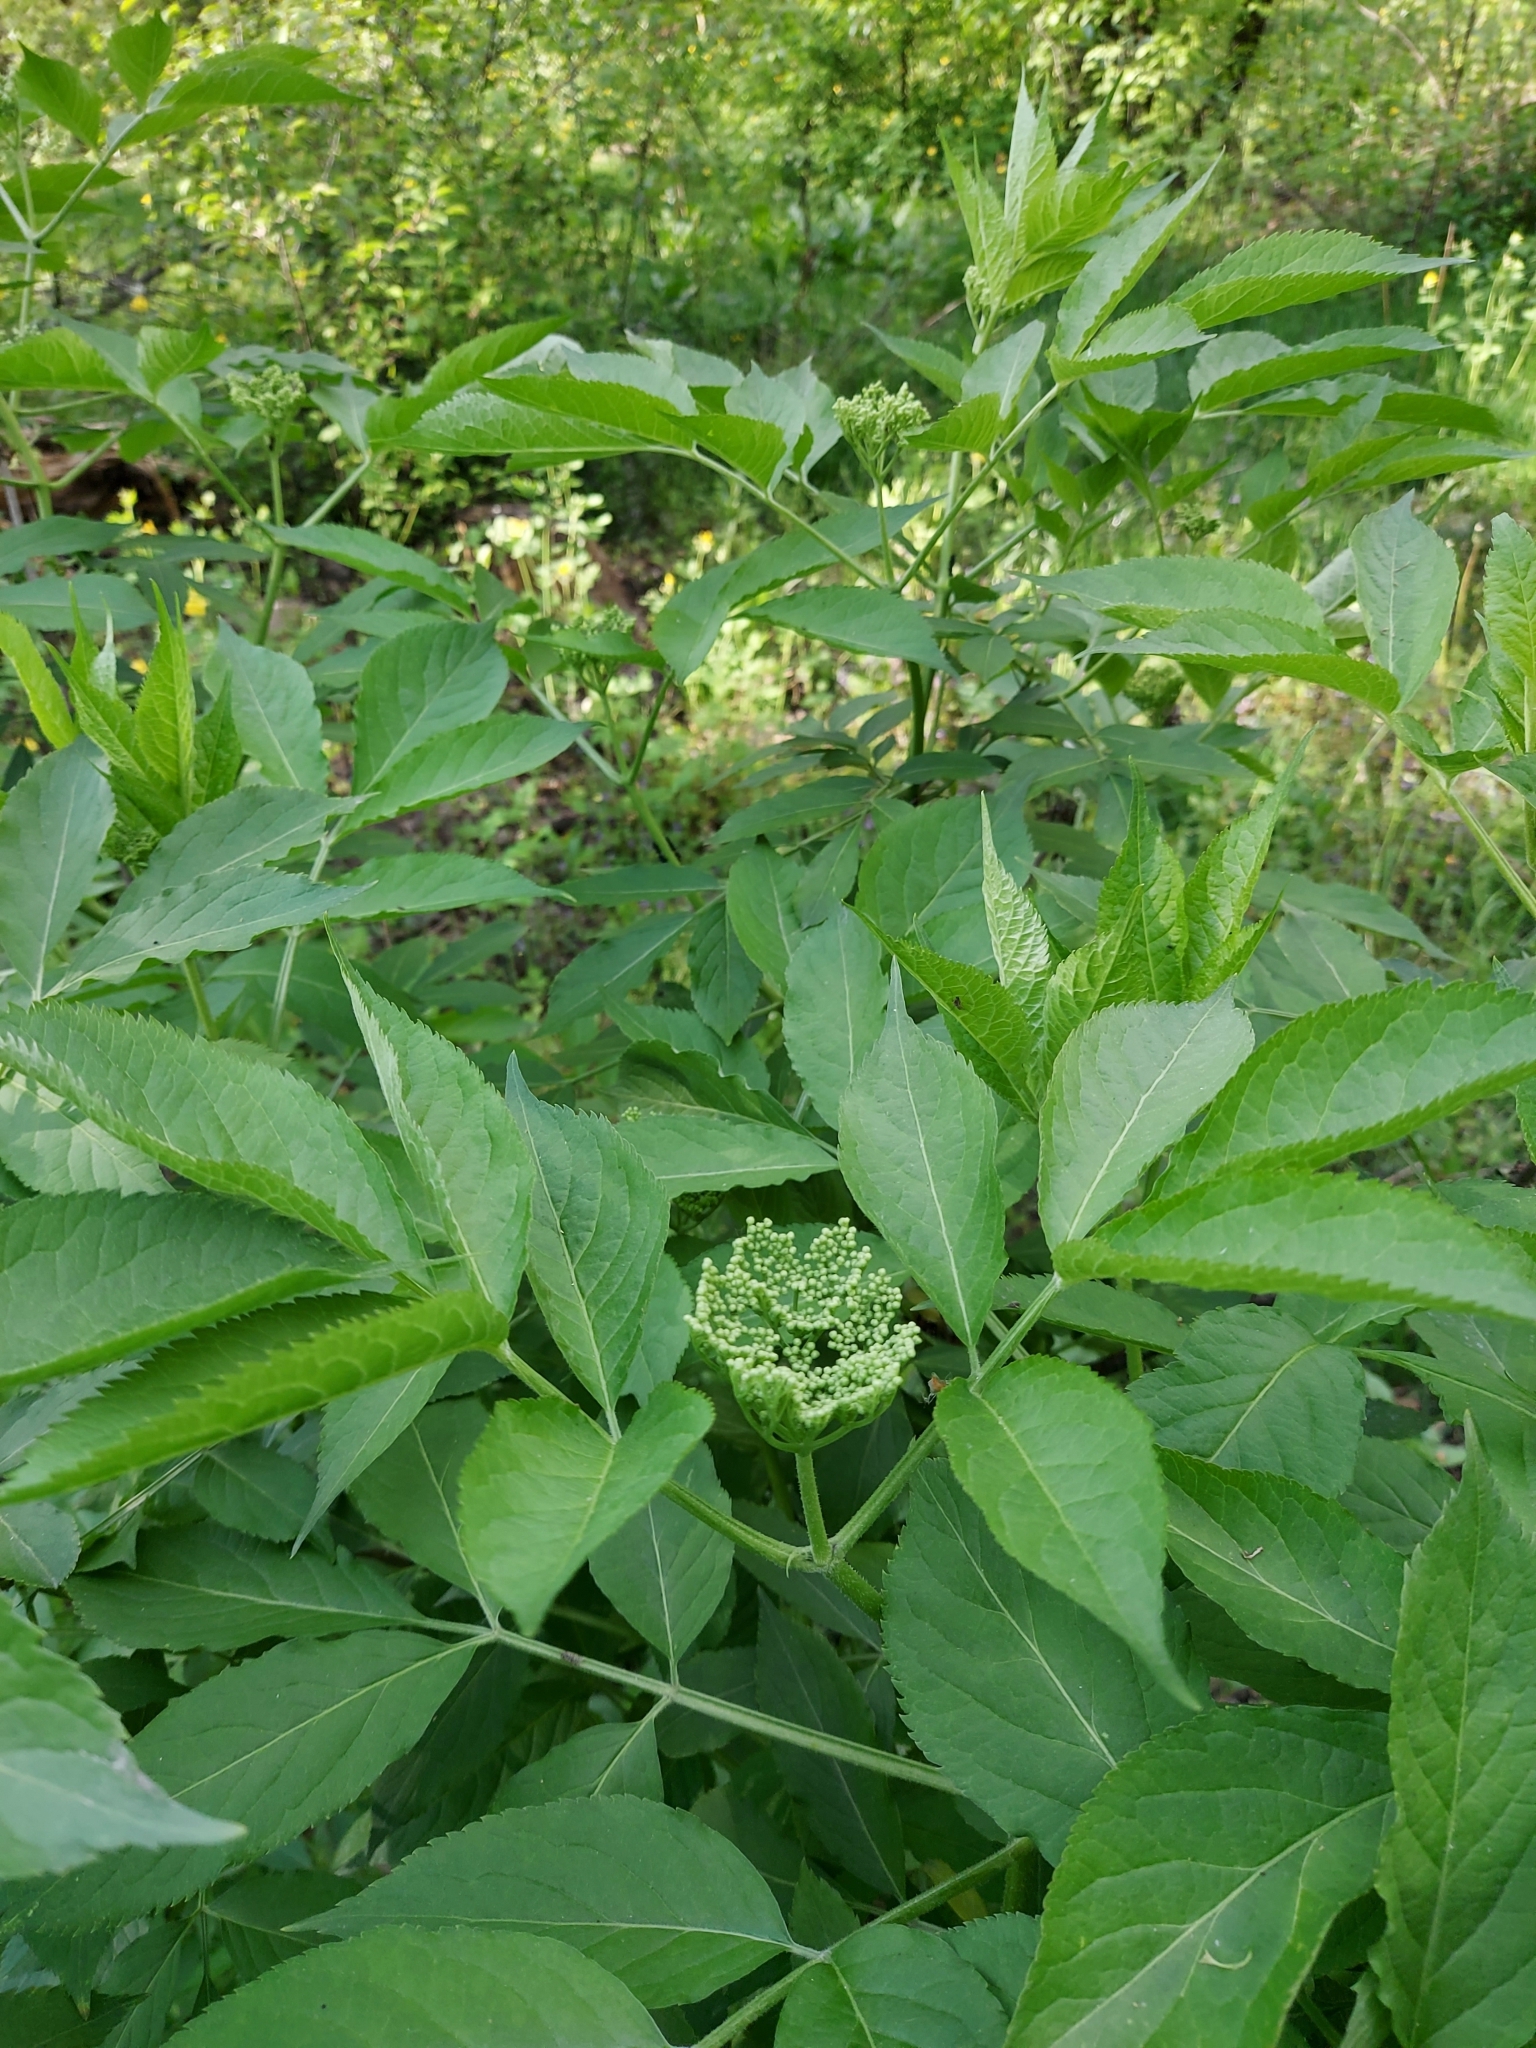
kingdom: Plantae
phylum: Tracheophyta
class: Magnoliopsida
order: Dipsacales
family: Viburnaceae
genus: Sambucus
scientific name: Sambucus nigra
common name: Elder
